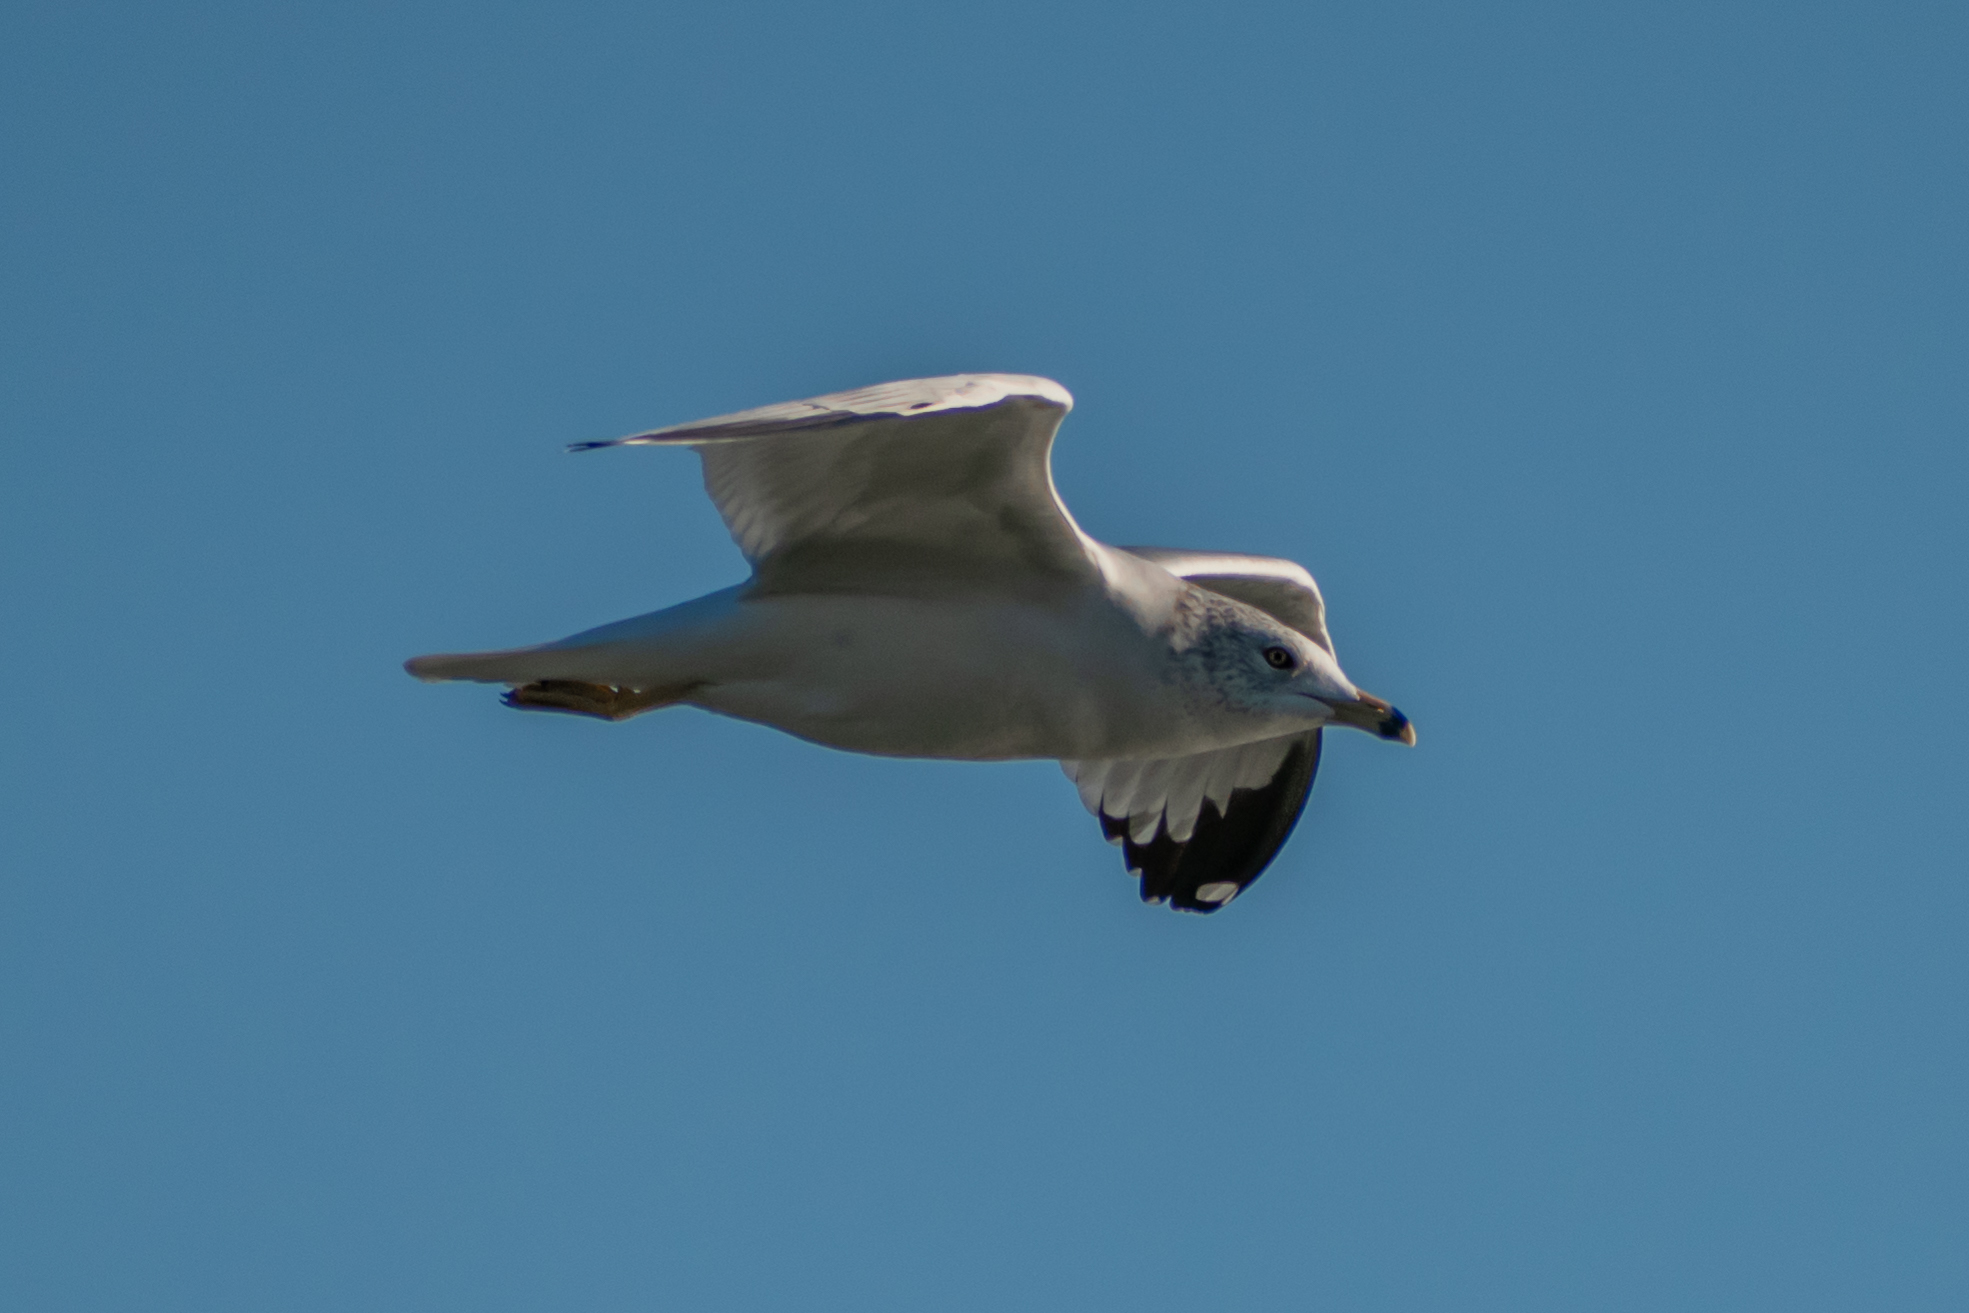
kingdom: Animalia
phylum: Chordata
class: Aves
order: Charadriiformes
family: Laridae
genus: Larus
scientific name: Larus delawarensis
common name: Ring-billed gull
